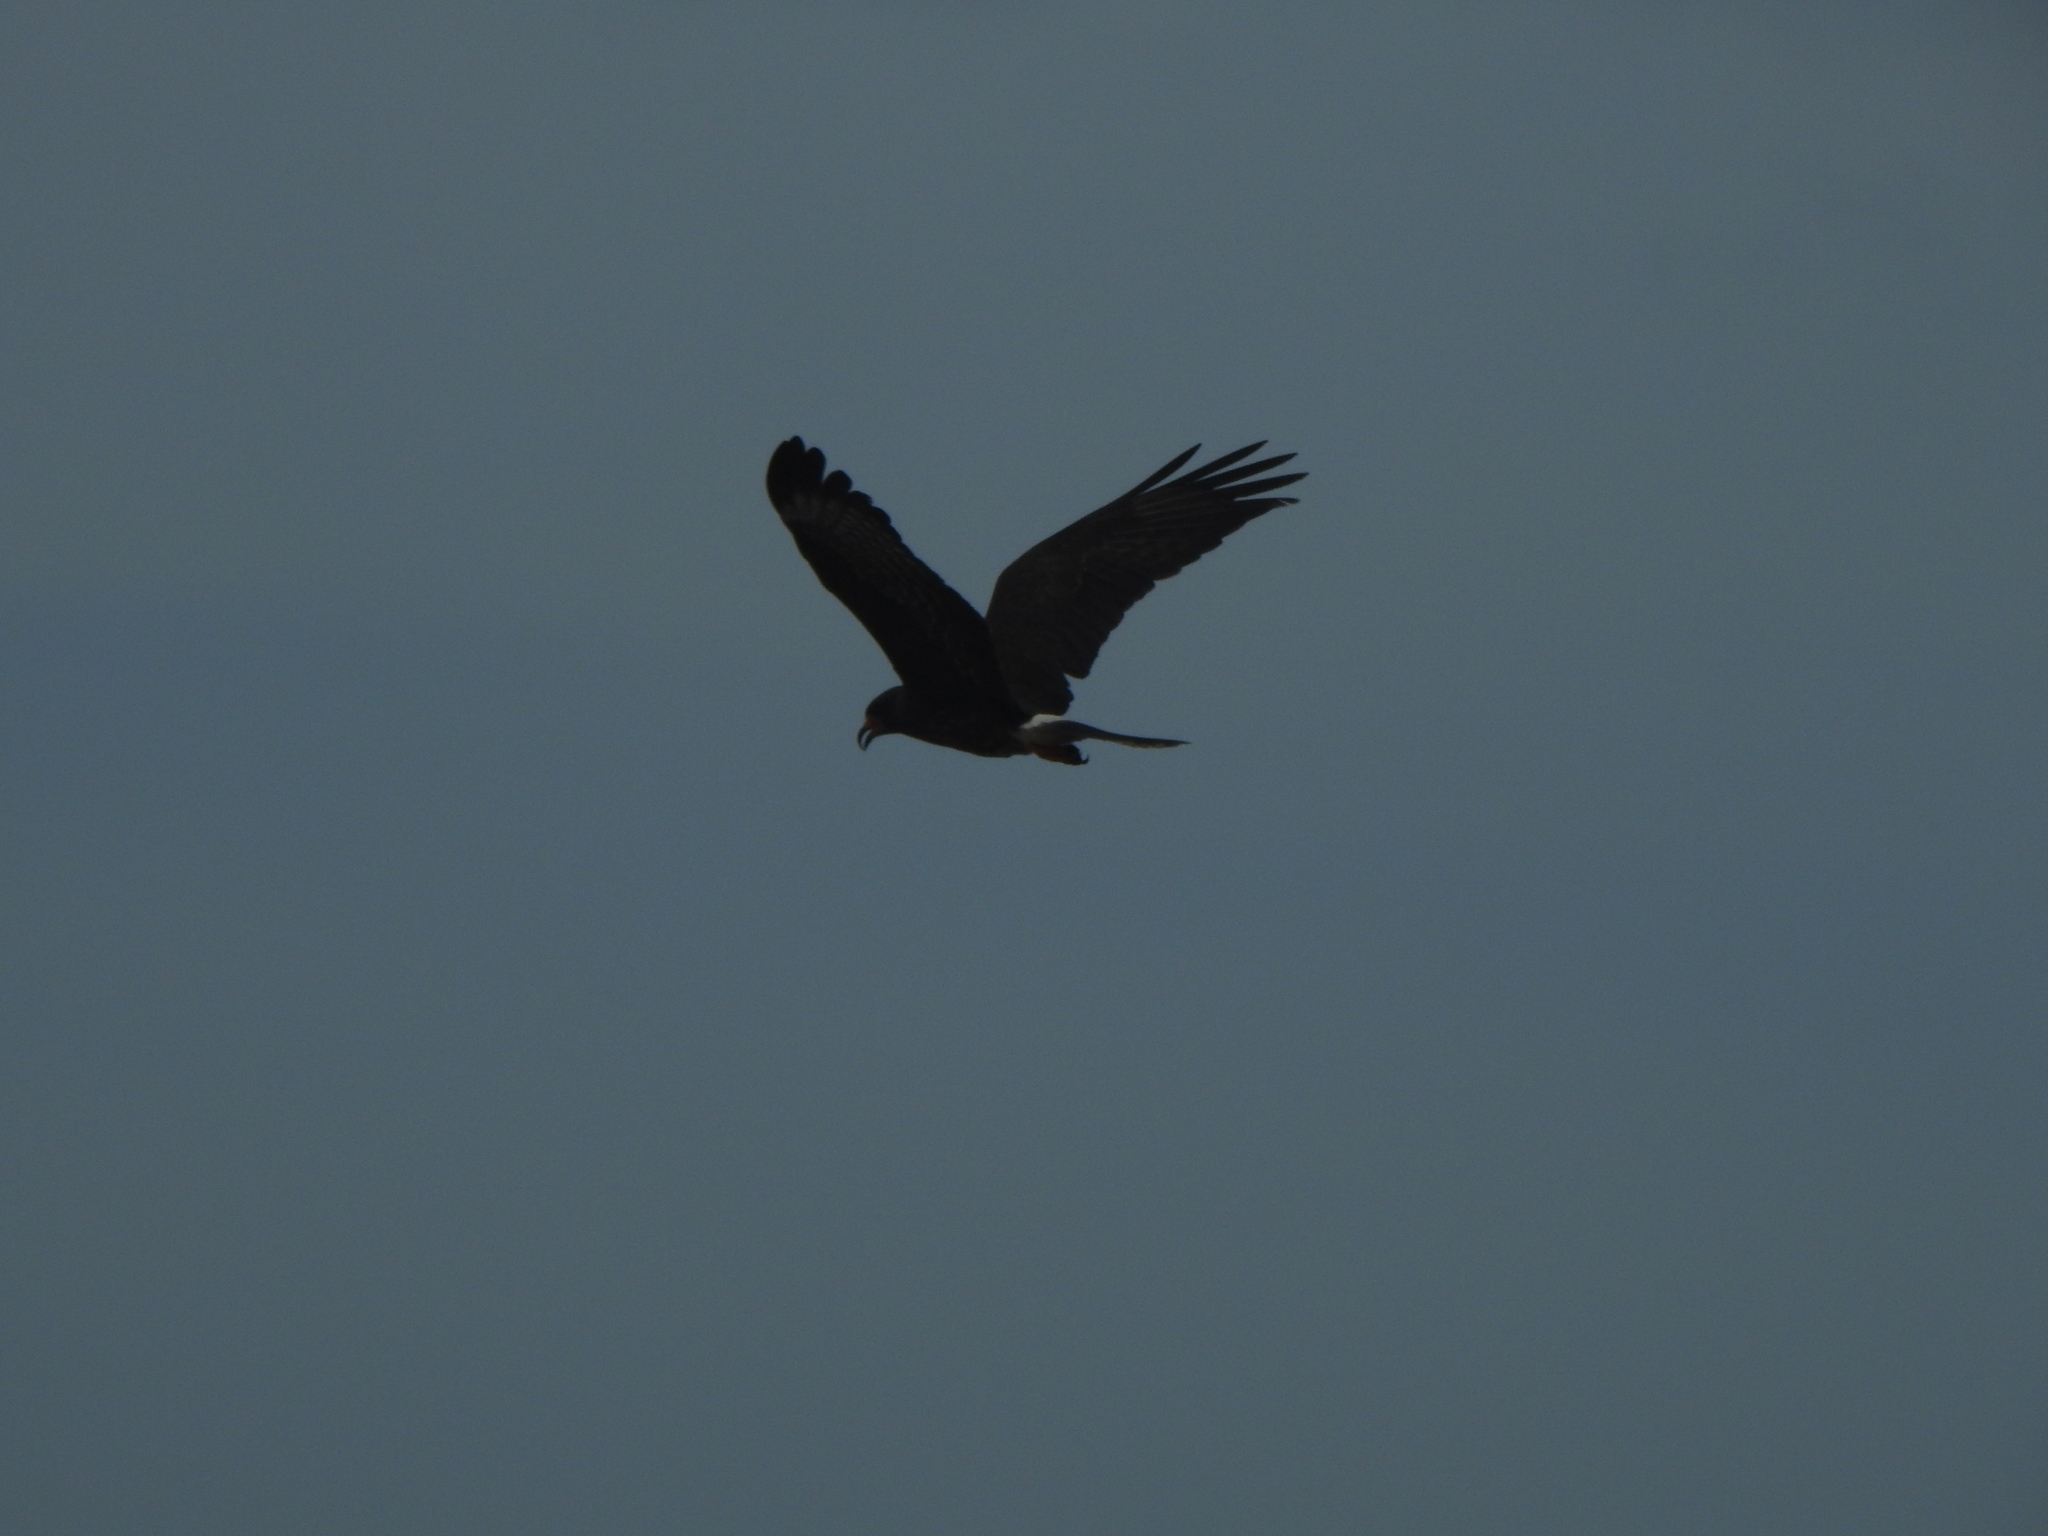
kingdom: Animalia
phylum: Chordata
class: Aves
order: Accipitriformes
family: Accipitridae
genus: Rostrhamus
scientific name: Rostrhamus sociabilis
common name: Snail kite
